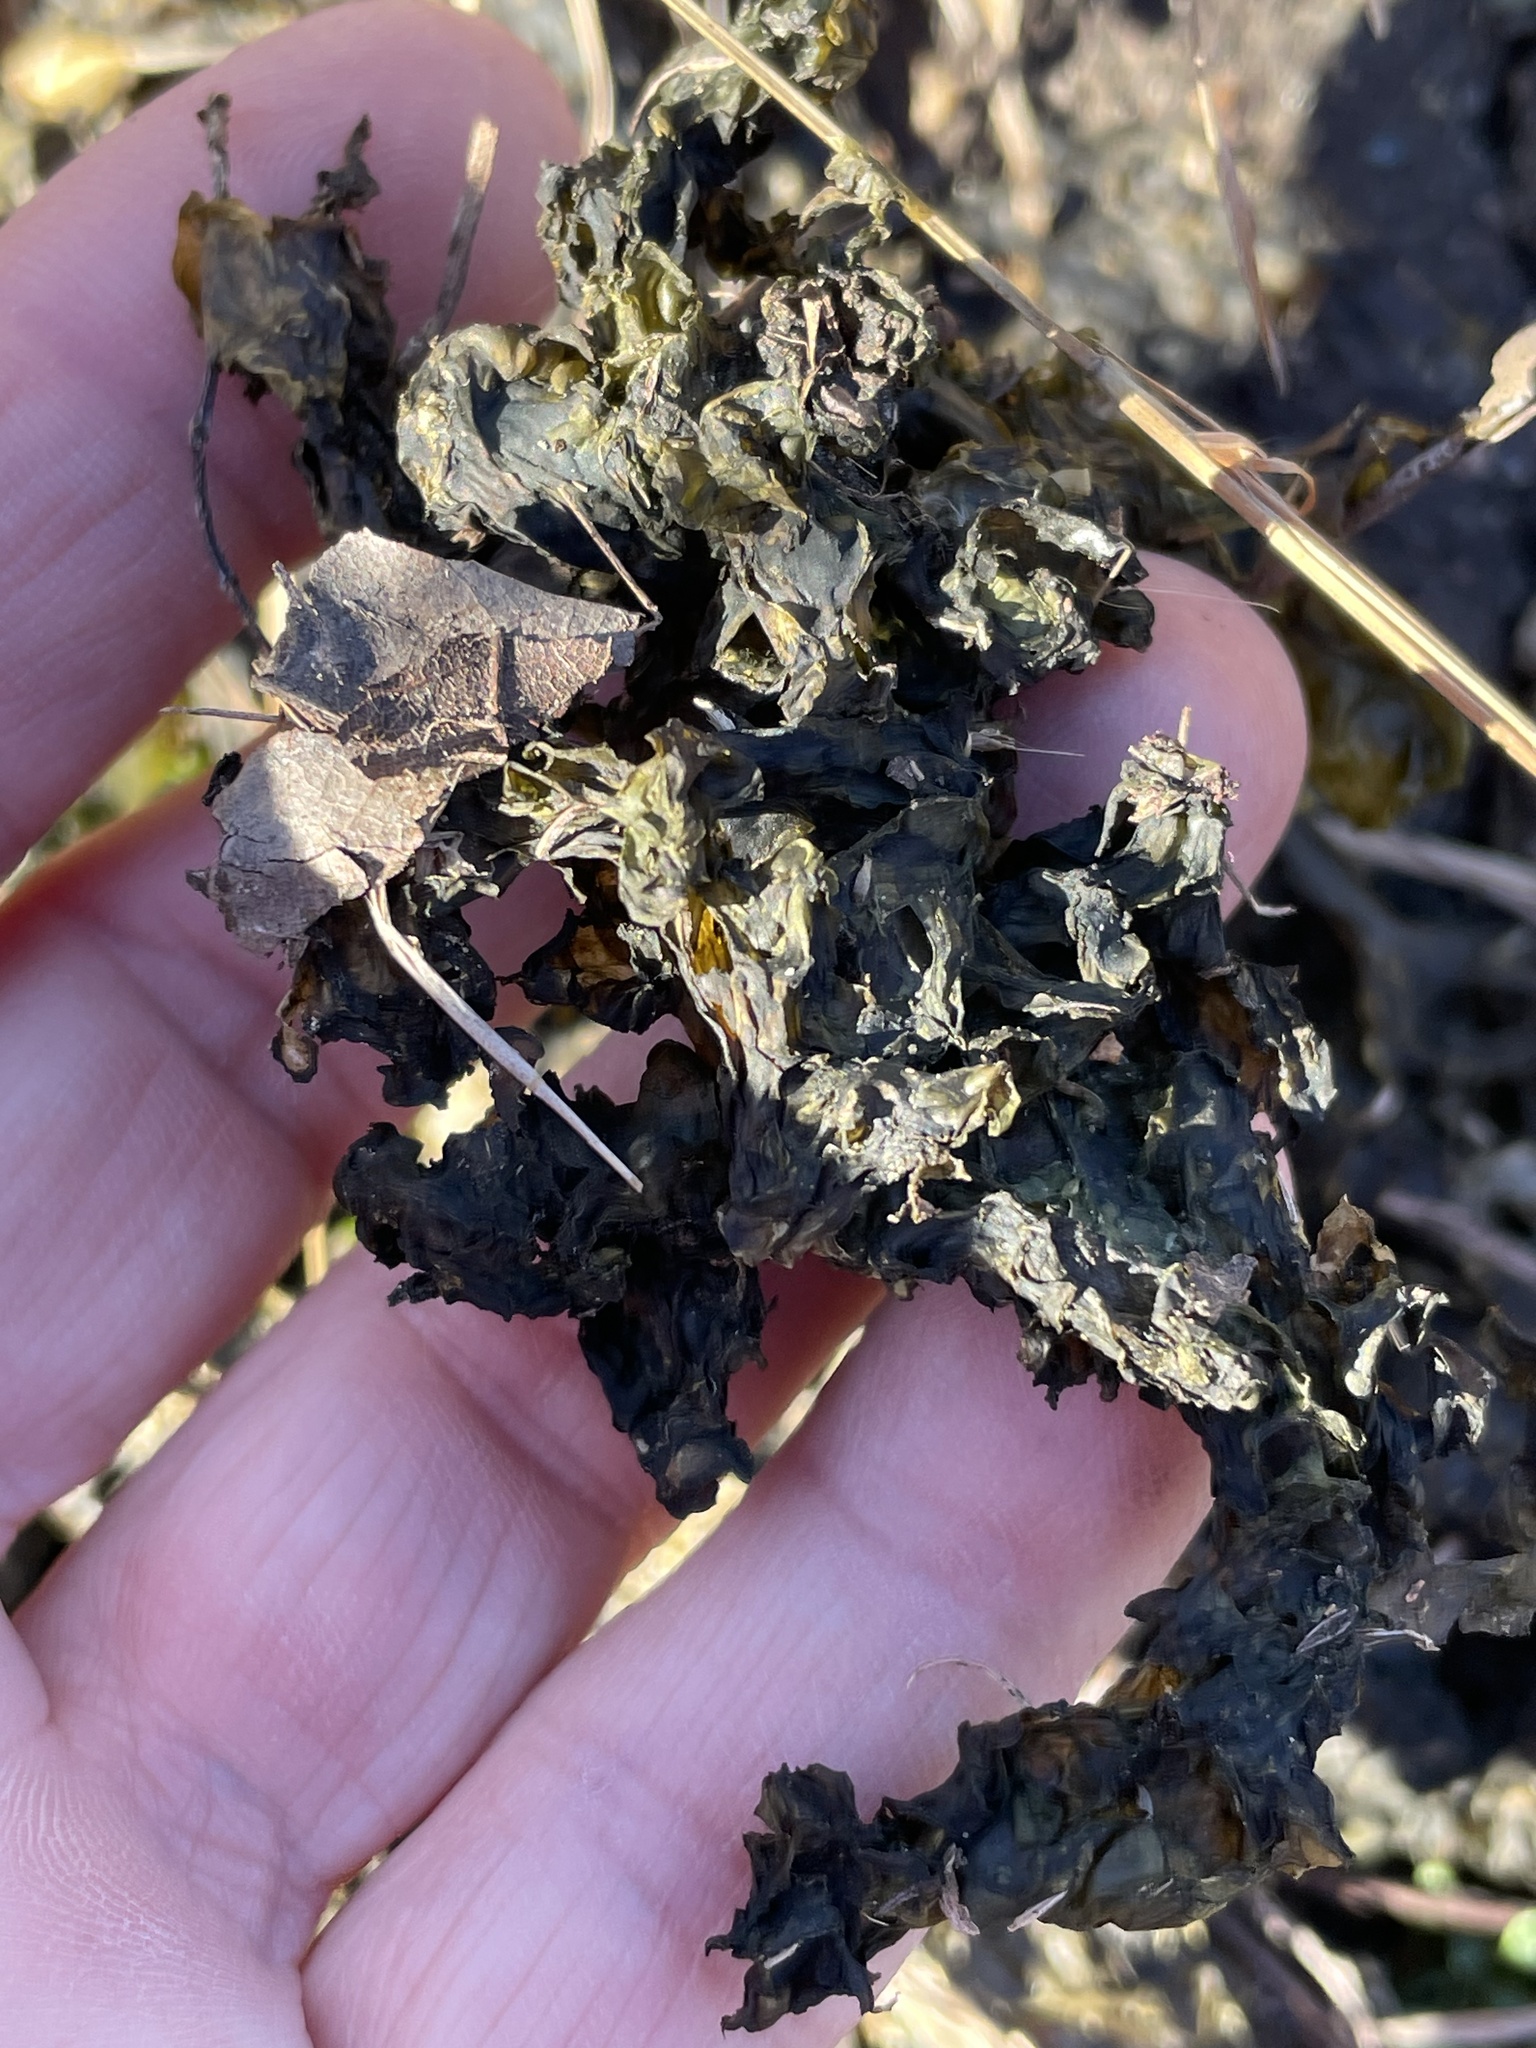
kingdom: Bacteria
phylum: Cyanobacteria
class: Cyanobacteriia
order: Cyanobacteriales
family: Nostocaceae
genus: Nostoc
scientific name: Nostoc commune
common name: Star jelly
